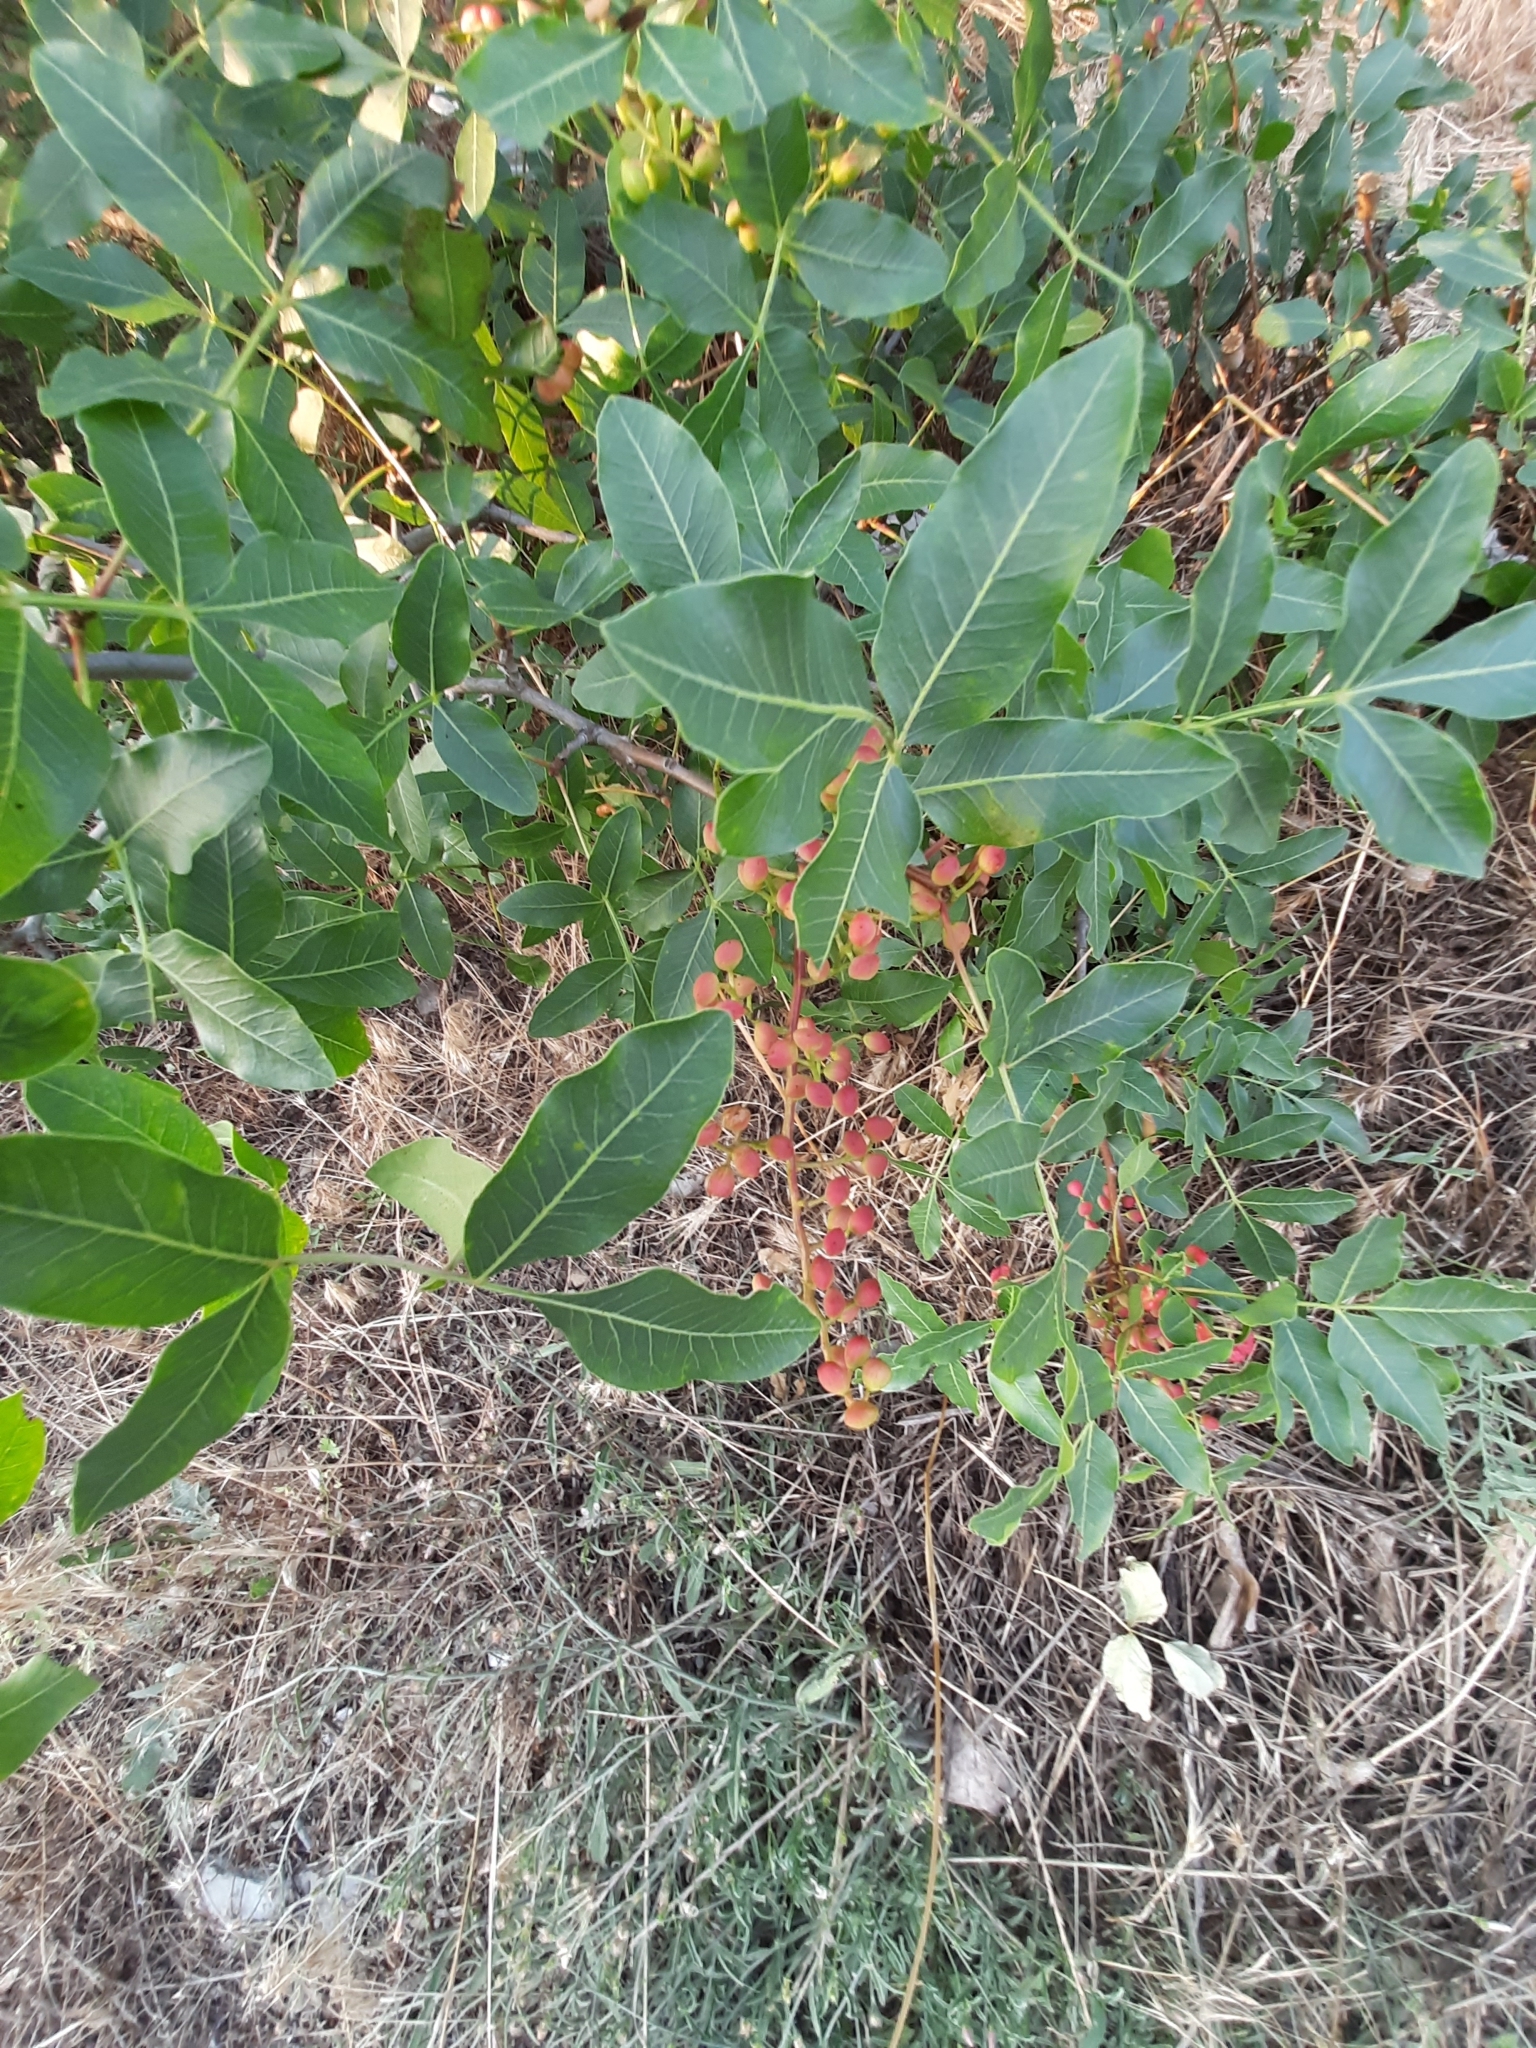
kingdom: Plantae
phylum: Tracheophyta
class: Magnoliopsida
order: Sapindales
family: Anacardiaceae
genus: Pistacia
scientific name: Pistacia atlantica
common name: Mt. atlas mastic tree
